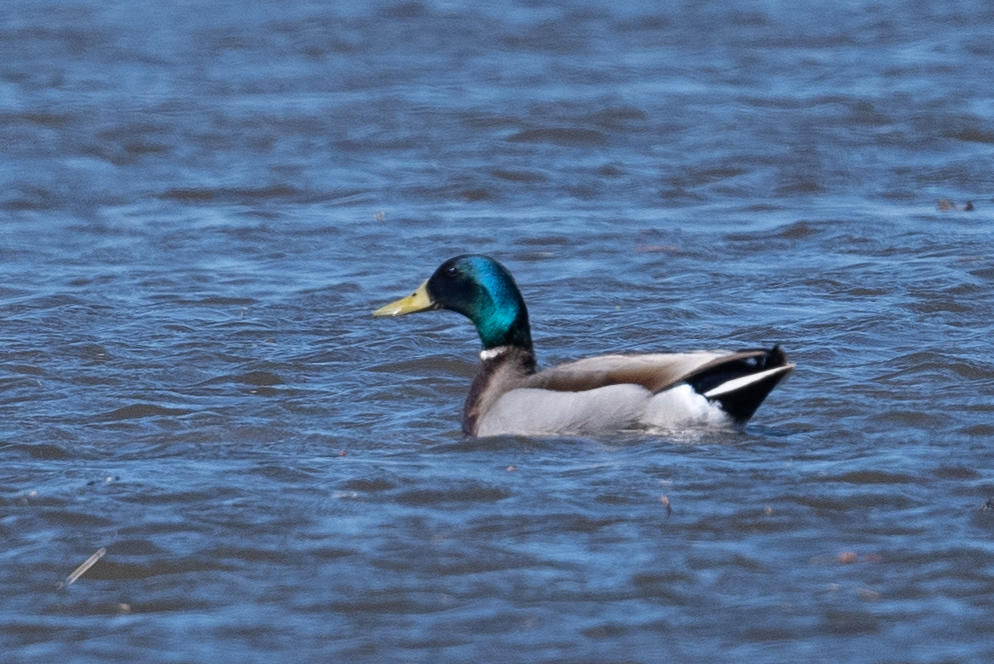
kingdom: Animalia
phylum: Chordata
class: Aves
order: Anseriformes
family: Anatidae
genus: Anas
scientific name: Anas platyrhynchos
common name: Mallard
